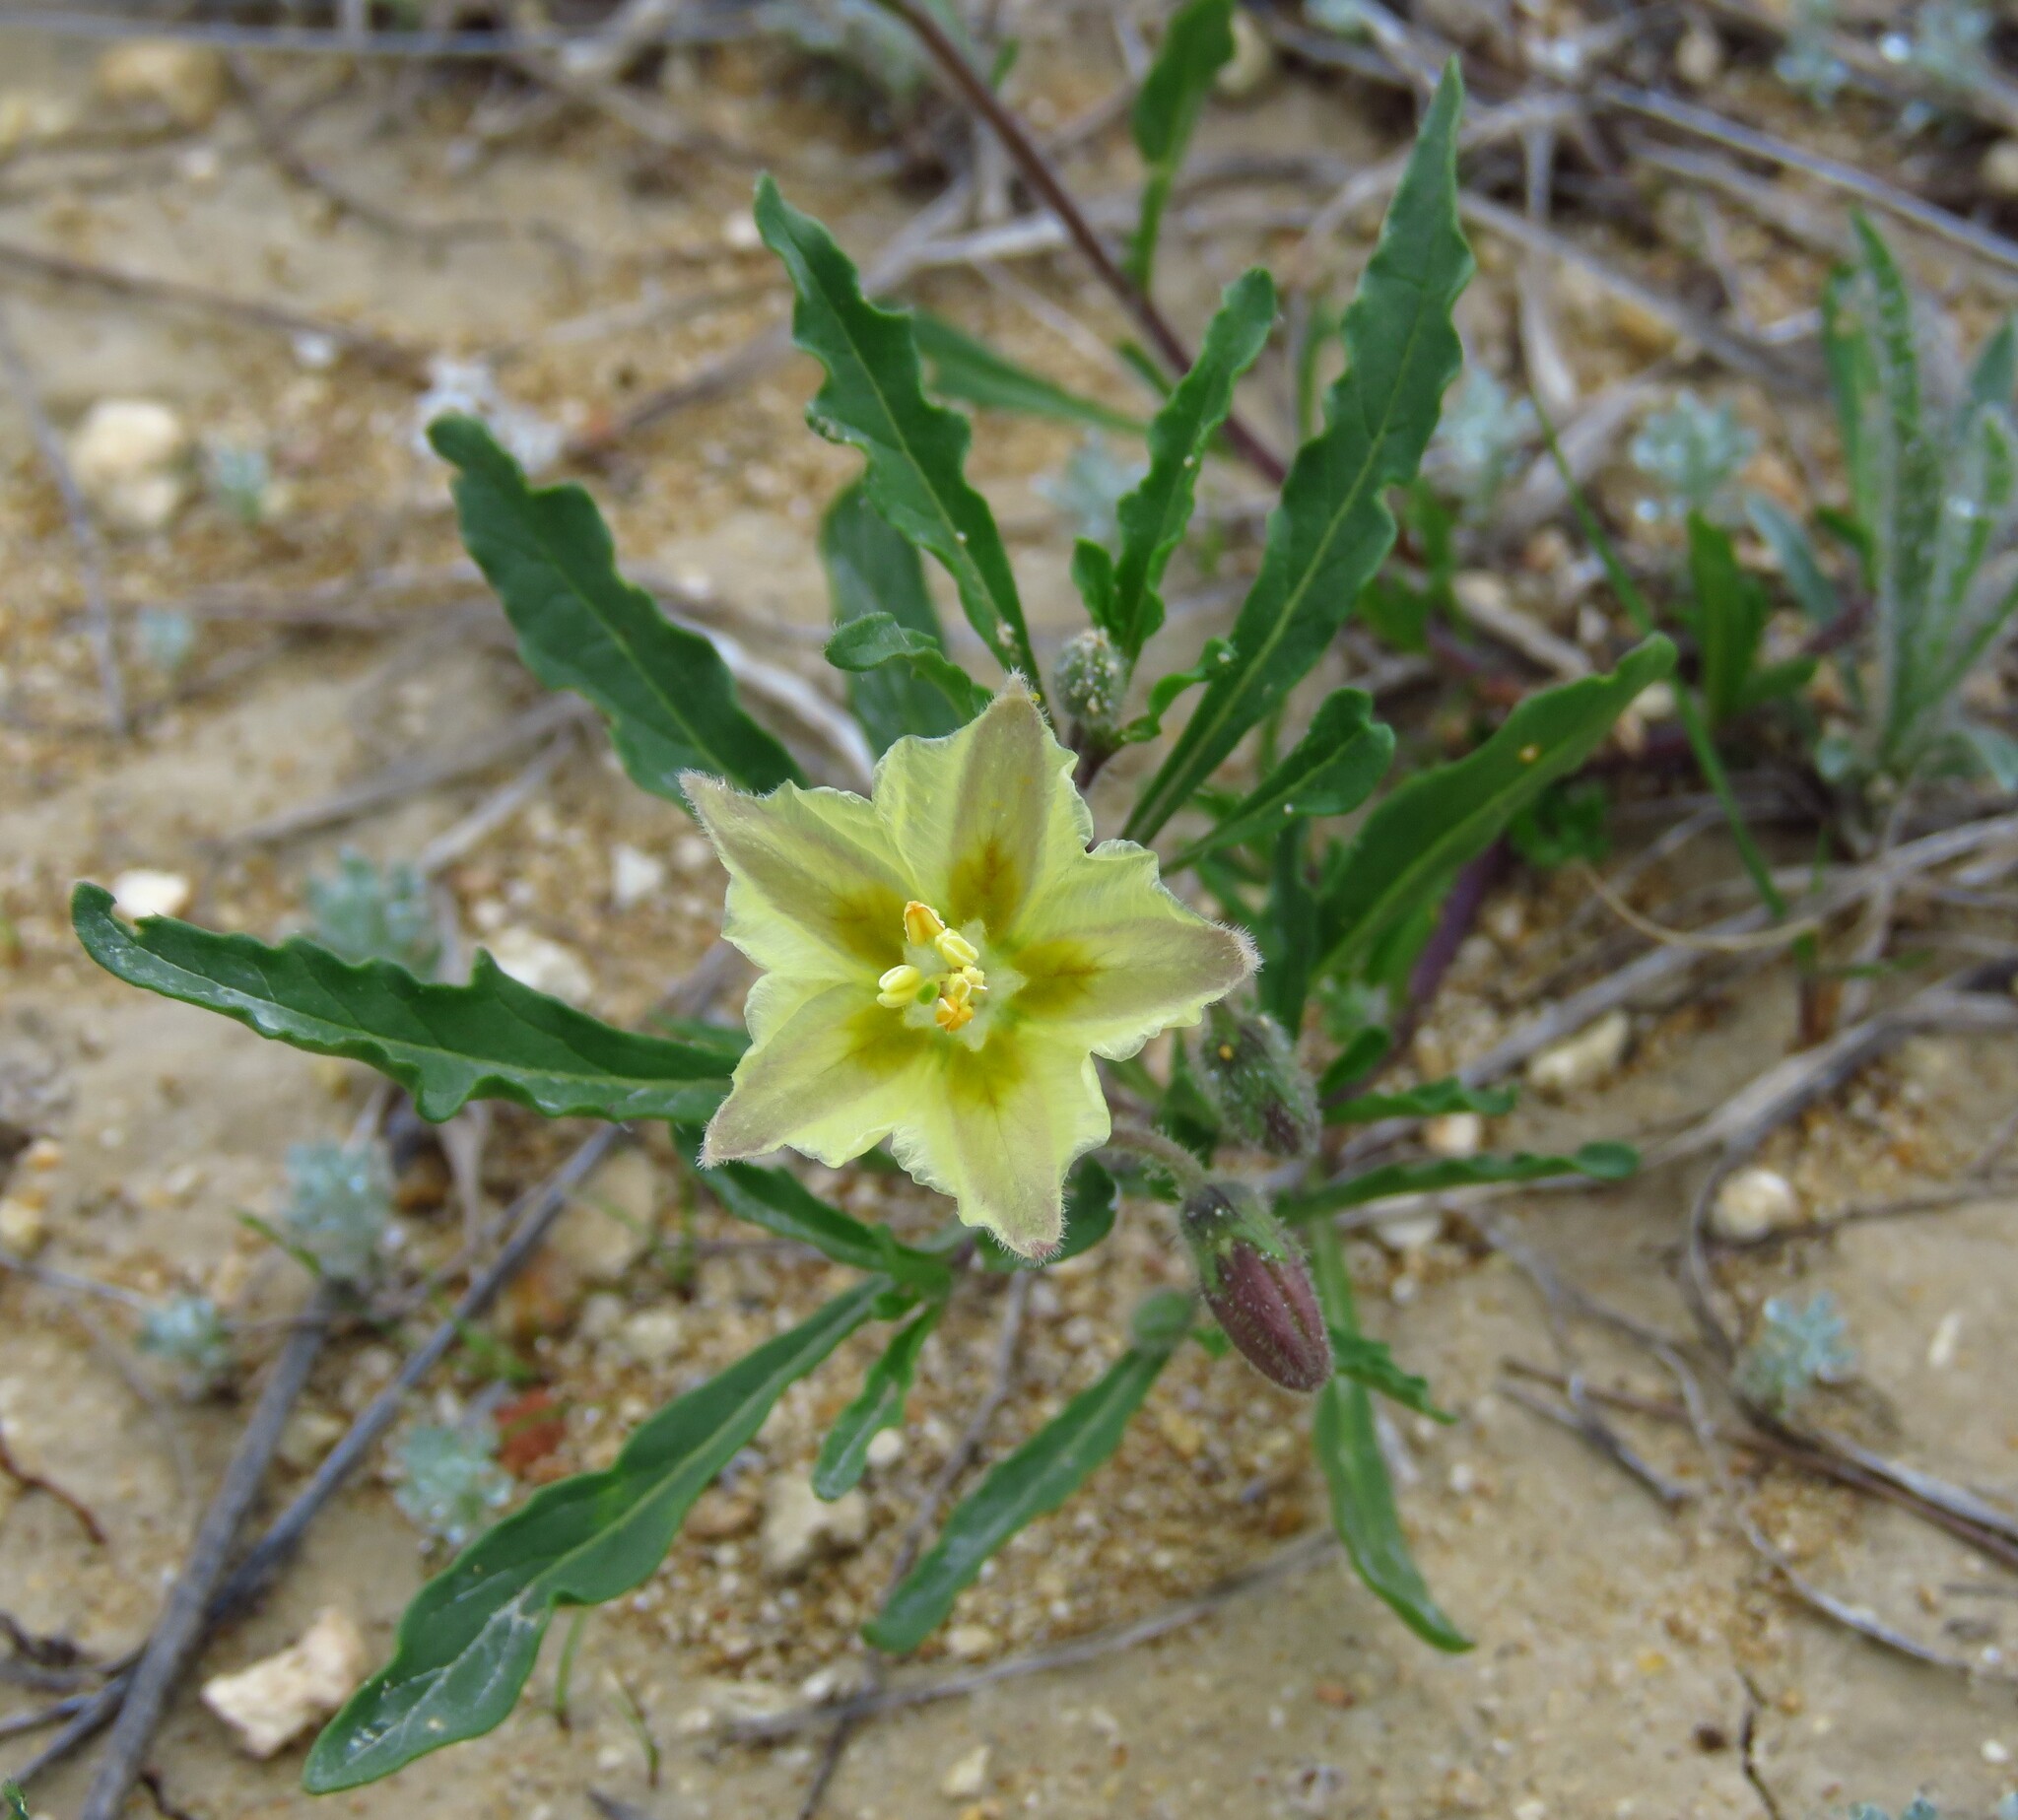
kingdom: Plantae
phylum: Tracheophyta
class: Magnoliopsida
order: Solanales
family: Solanaceae
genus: Chamaesaracha
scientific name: Chamaesaracha edwardsiana
